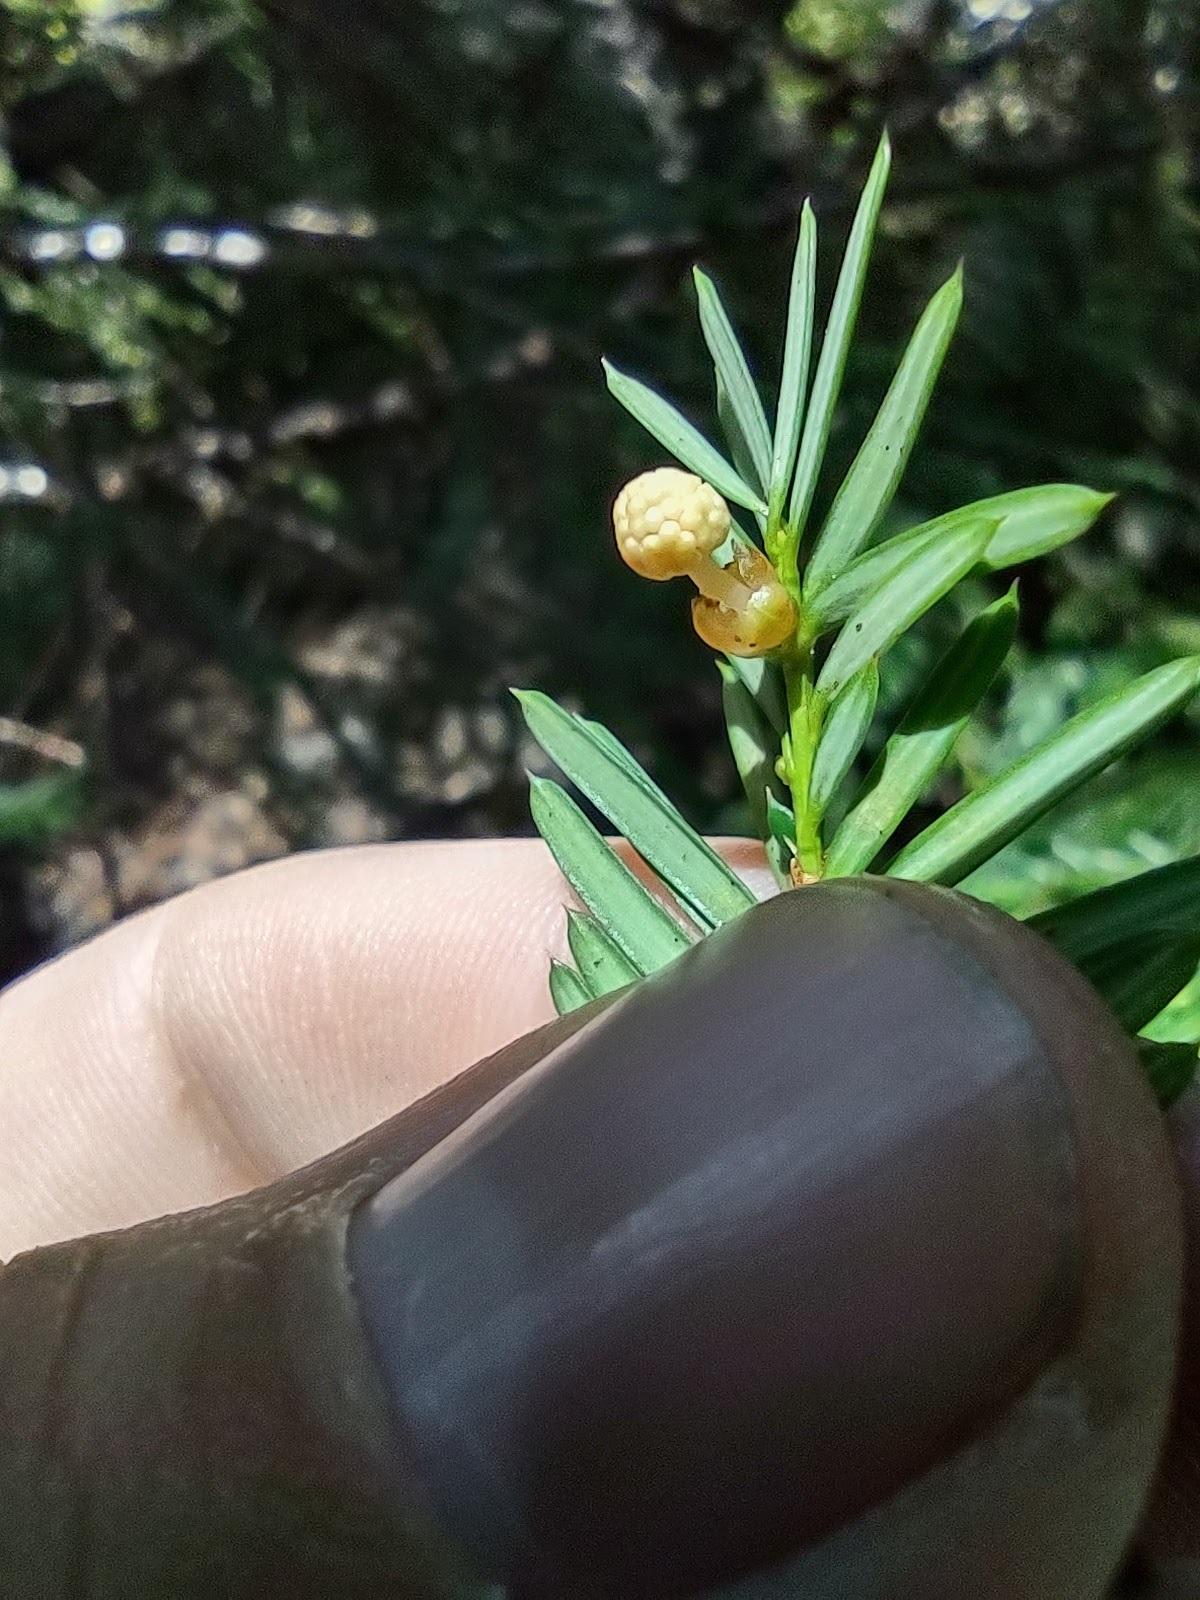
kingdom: Plantae
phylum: Tracheophyta
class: Pinopsida
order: Pinales
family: Taxaceae
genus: Taxus
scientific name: Taxus brevifolia
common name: Pacific yew
